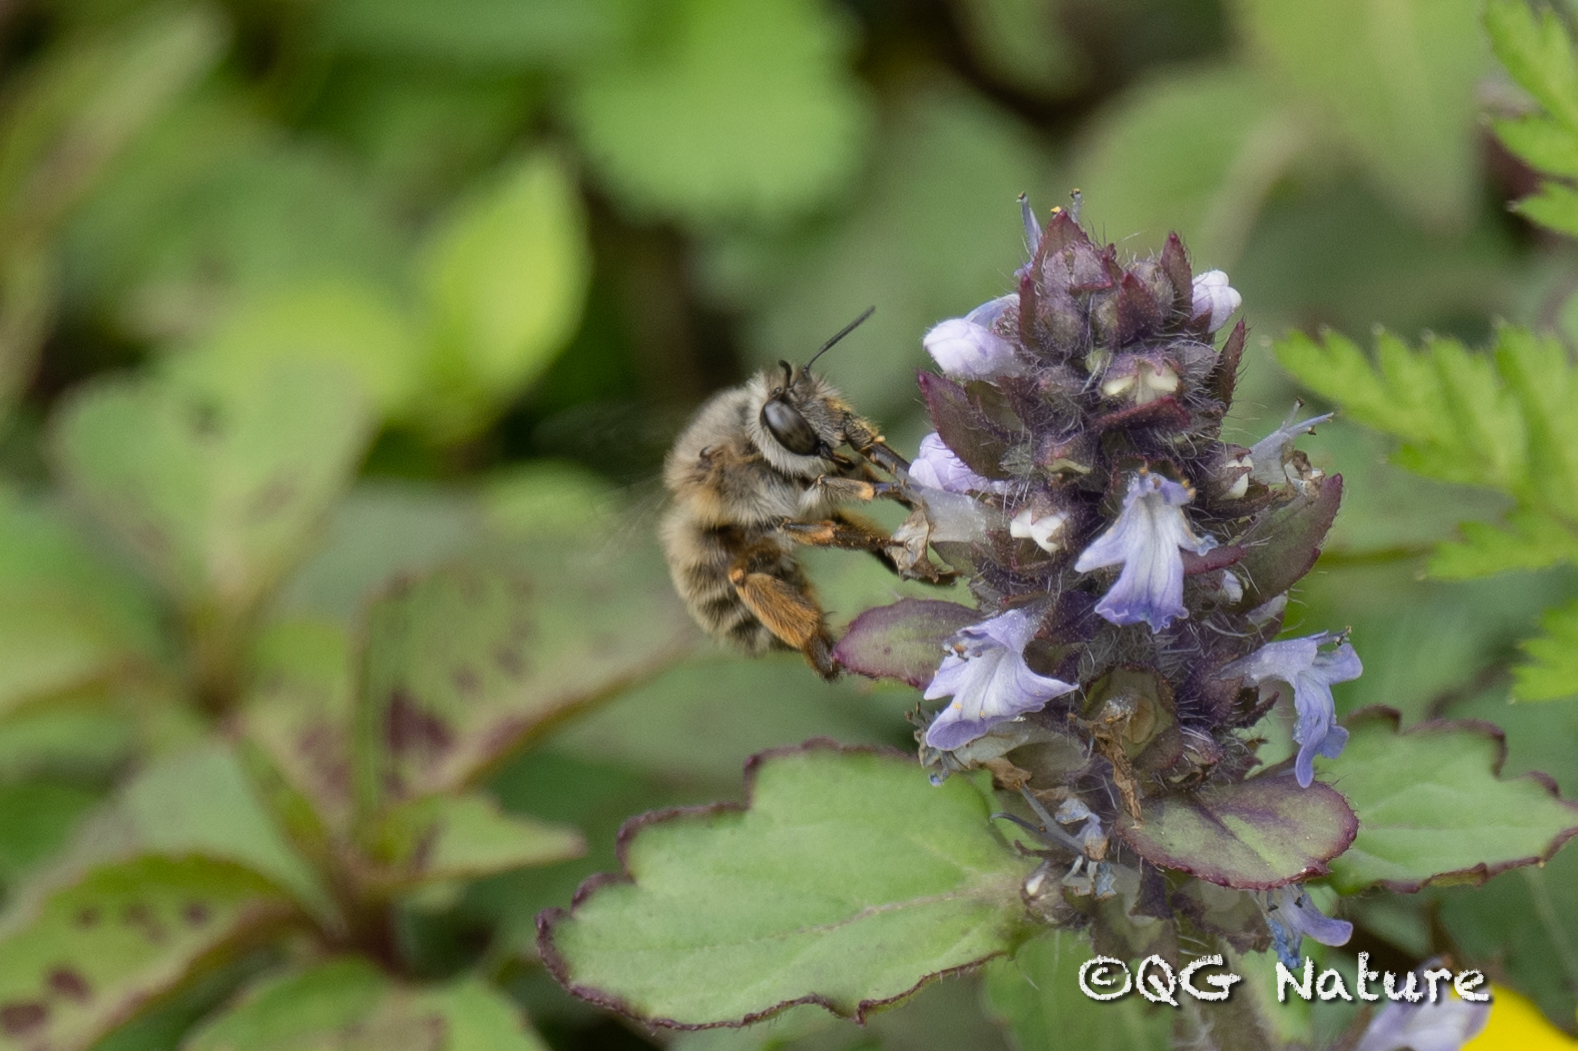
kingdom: Animalia
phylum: Arthropoda
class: Insecta
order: Hymenoptera
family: Apidae
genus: Anthophora
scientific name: Anthophora villosula
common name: Asian shaggy digger
